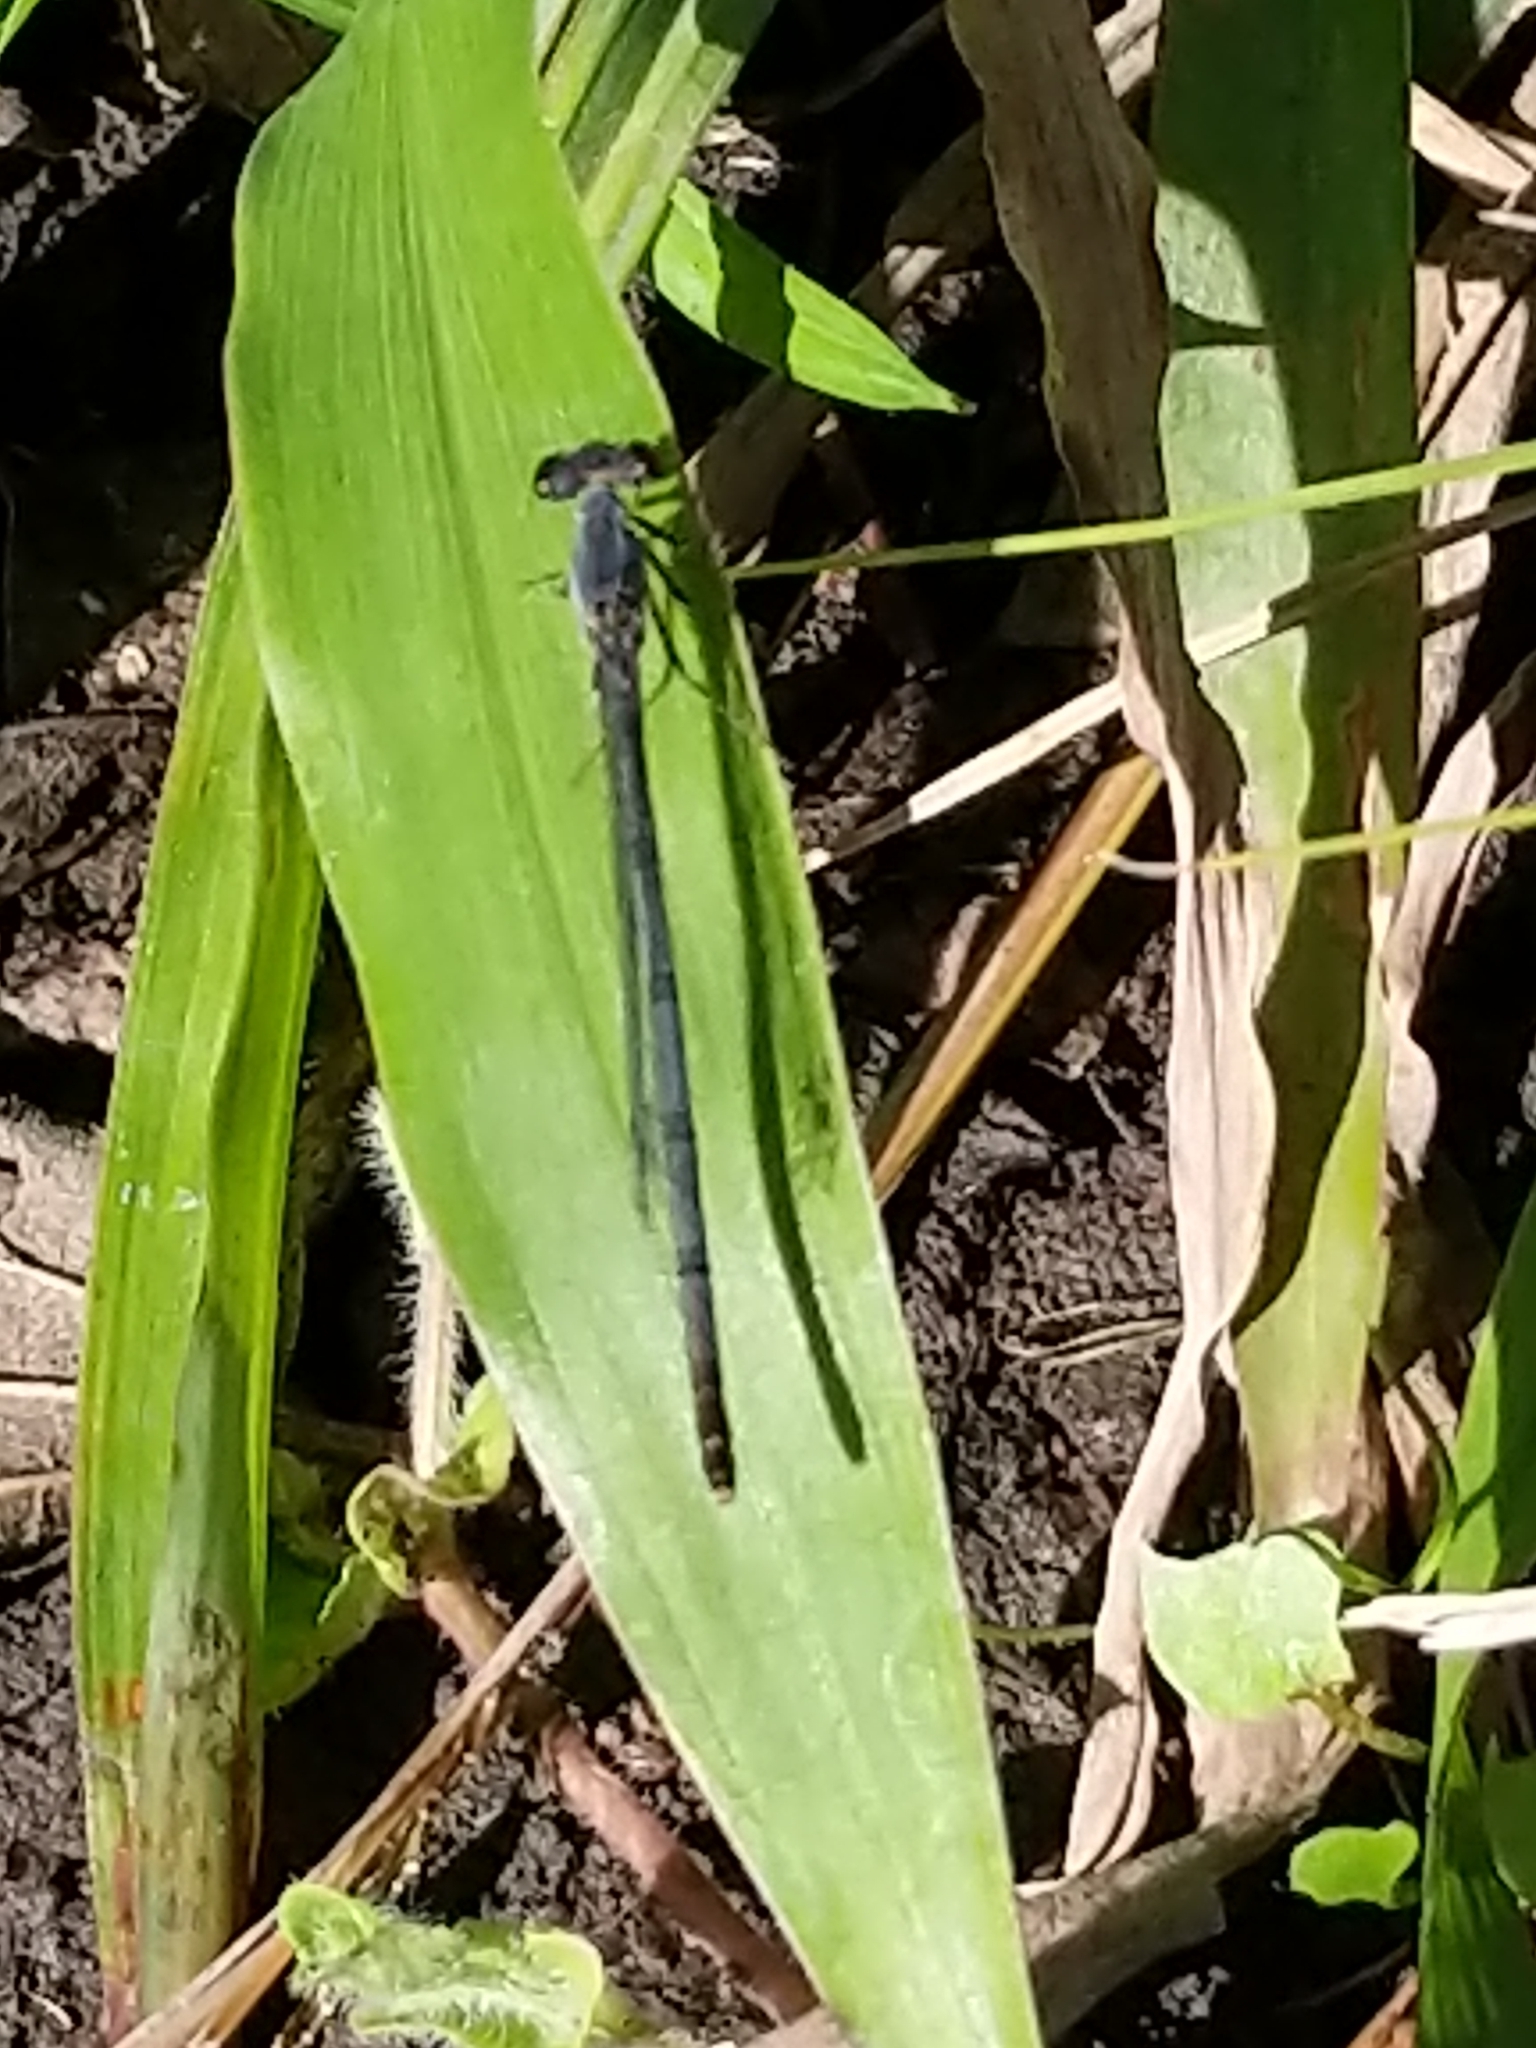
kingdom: Animalia
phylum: Arthropoda
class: Insecta
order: Odonata
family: Coenagrionidae
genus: Ischnura
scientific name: Ischnura posita
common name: Fragile forktail
